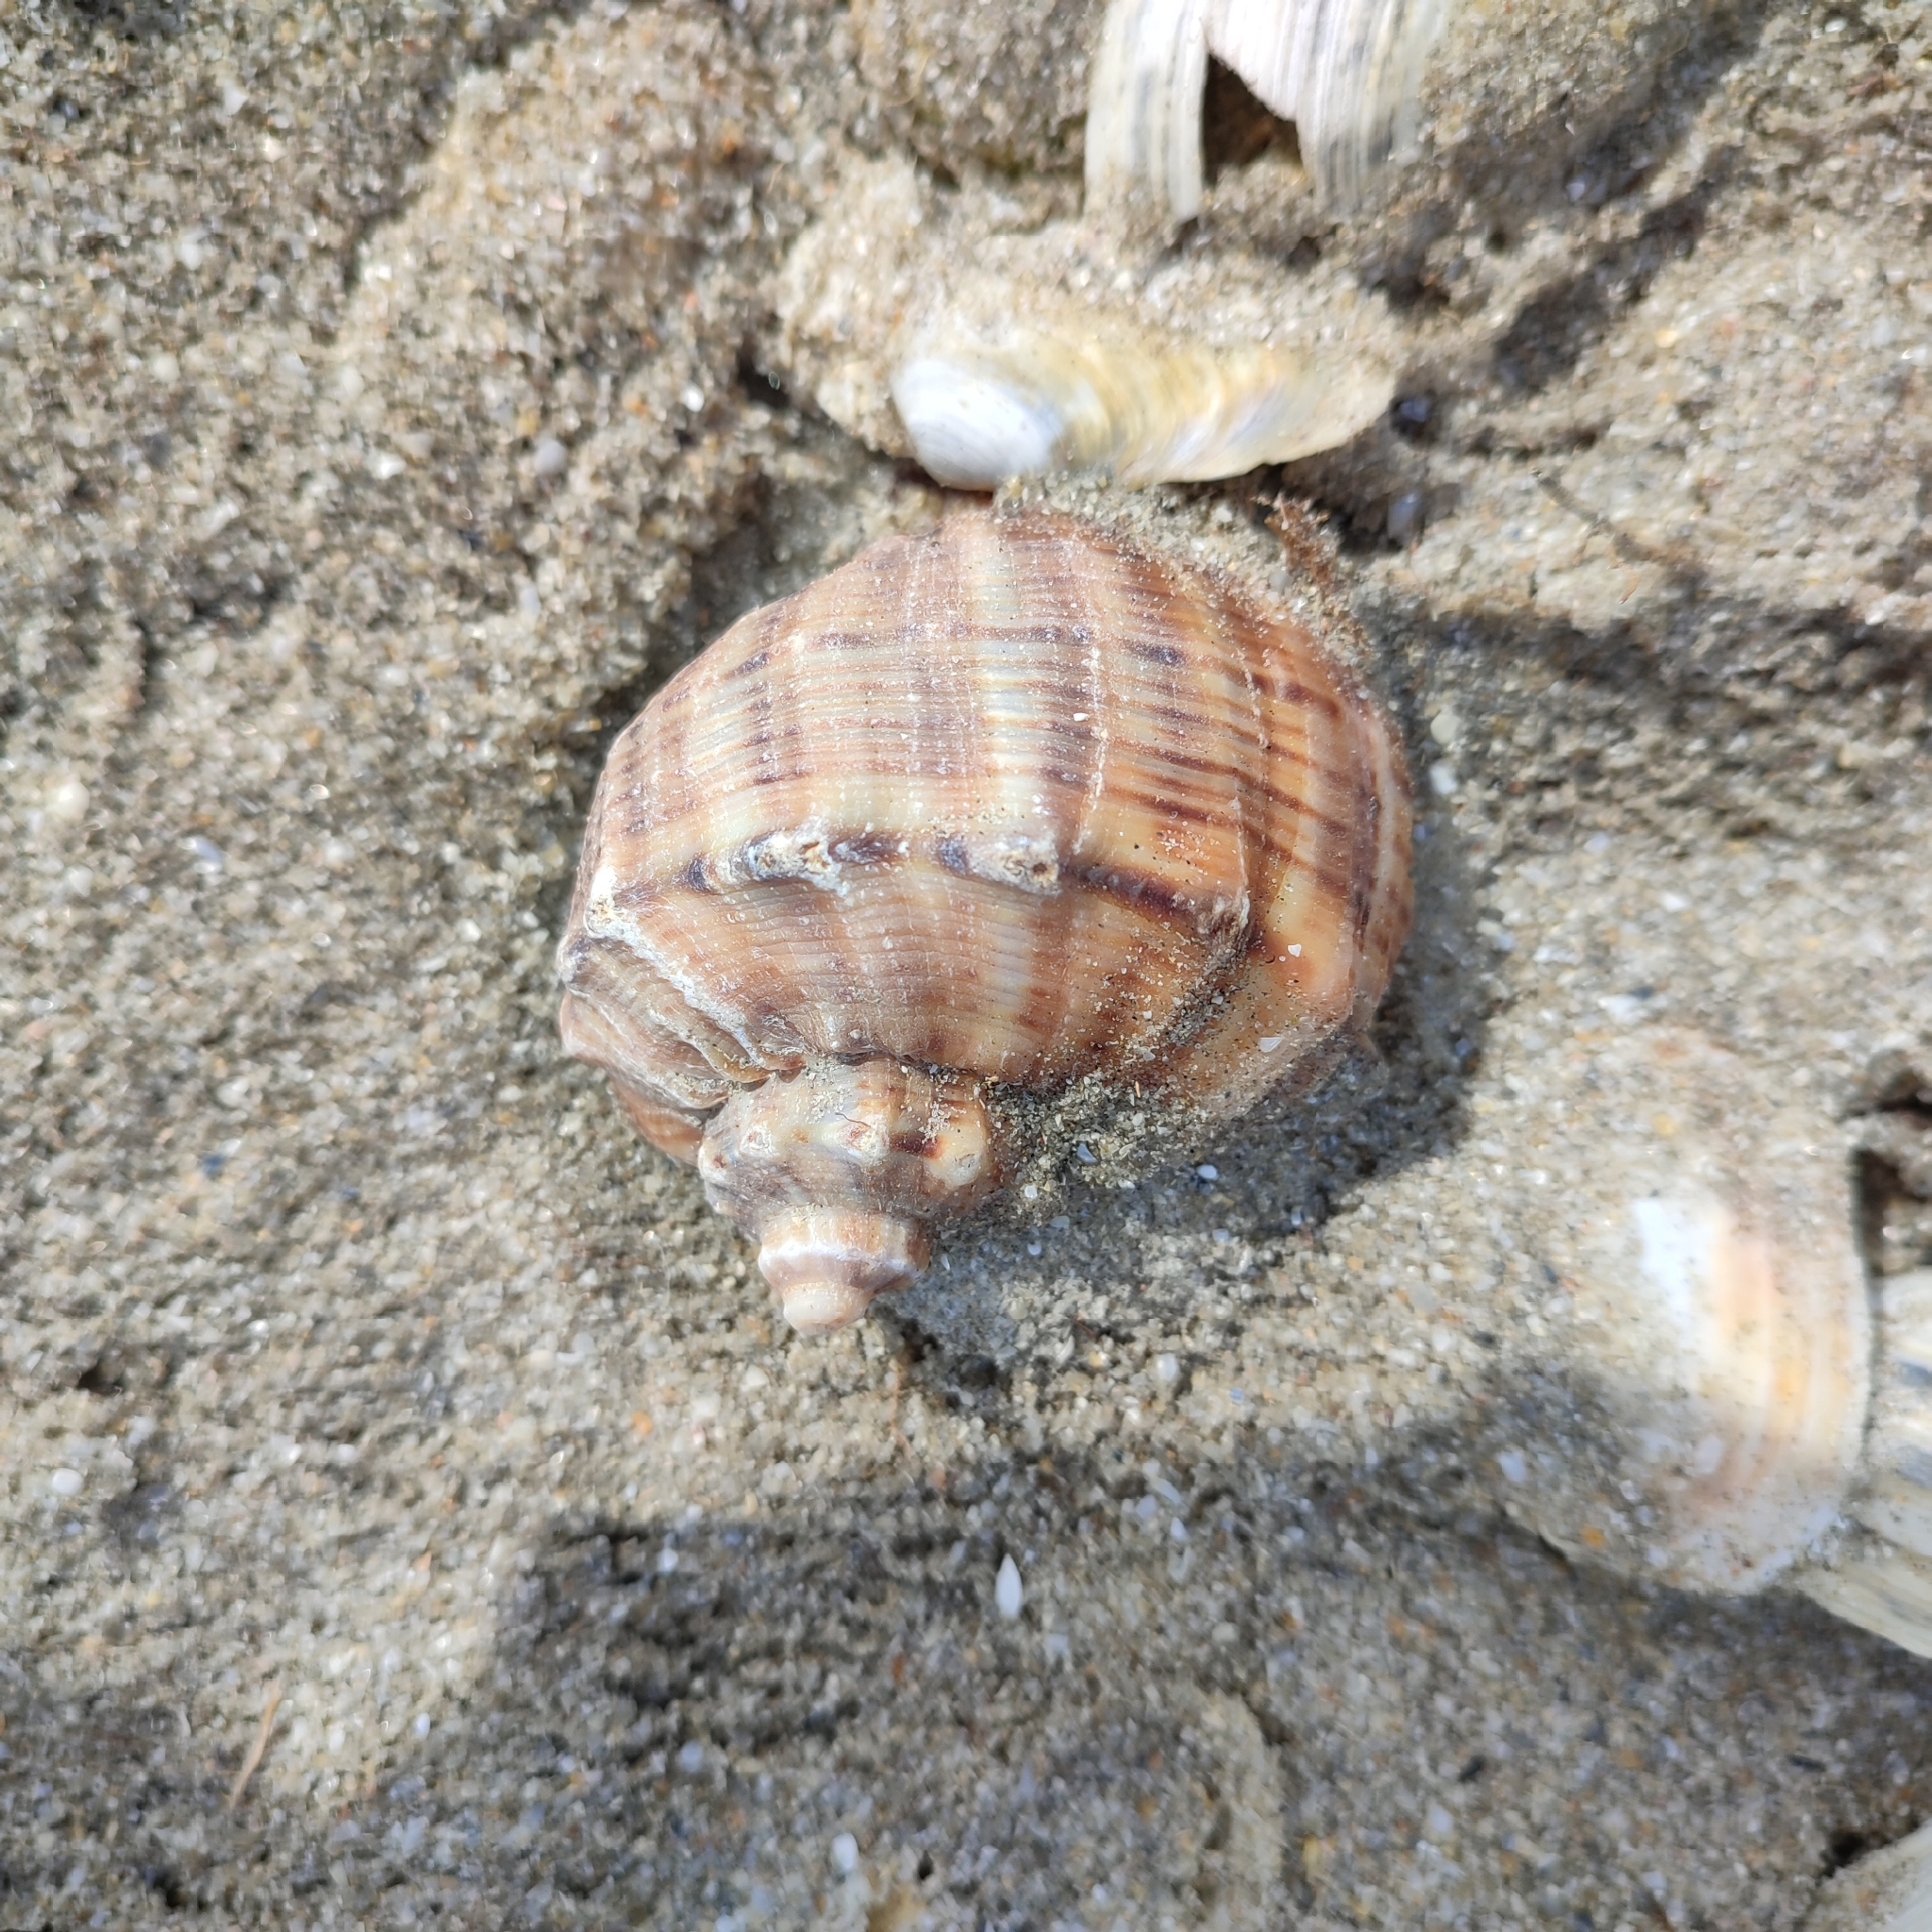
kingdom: Animalia
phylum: Mollusca
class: Gastropoda
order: Neogastropoda
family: Muricidae
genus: Rapana
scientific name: Rapana venosa
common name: Veined rapa whelk
